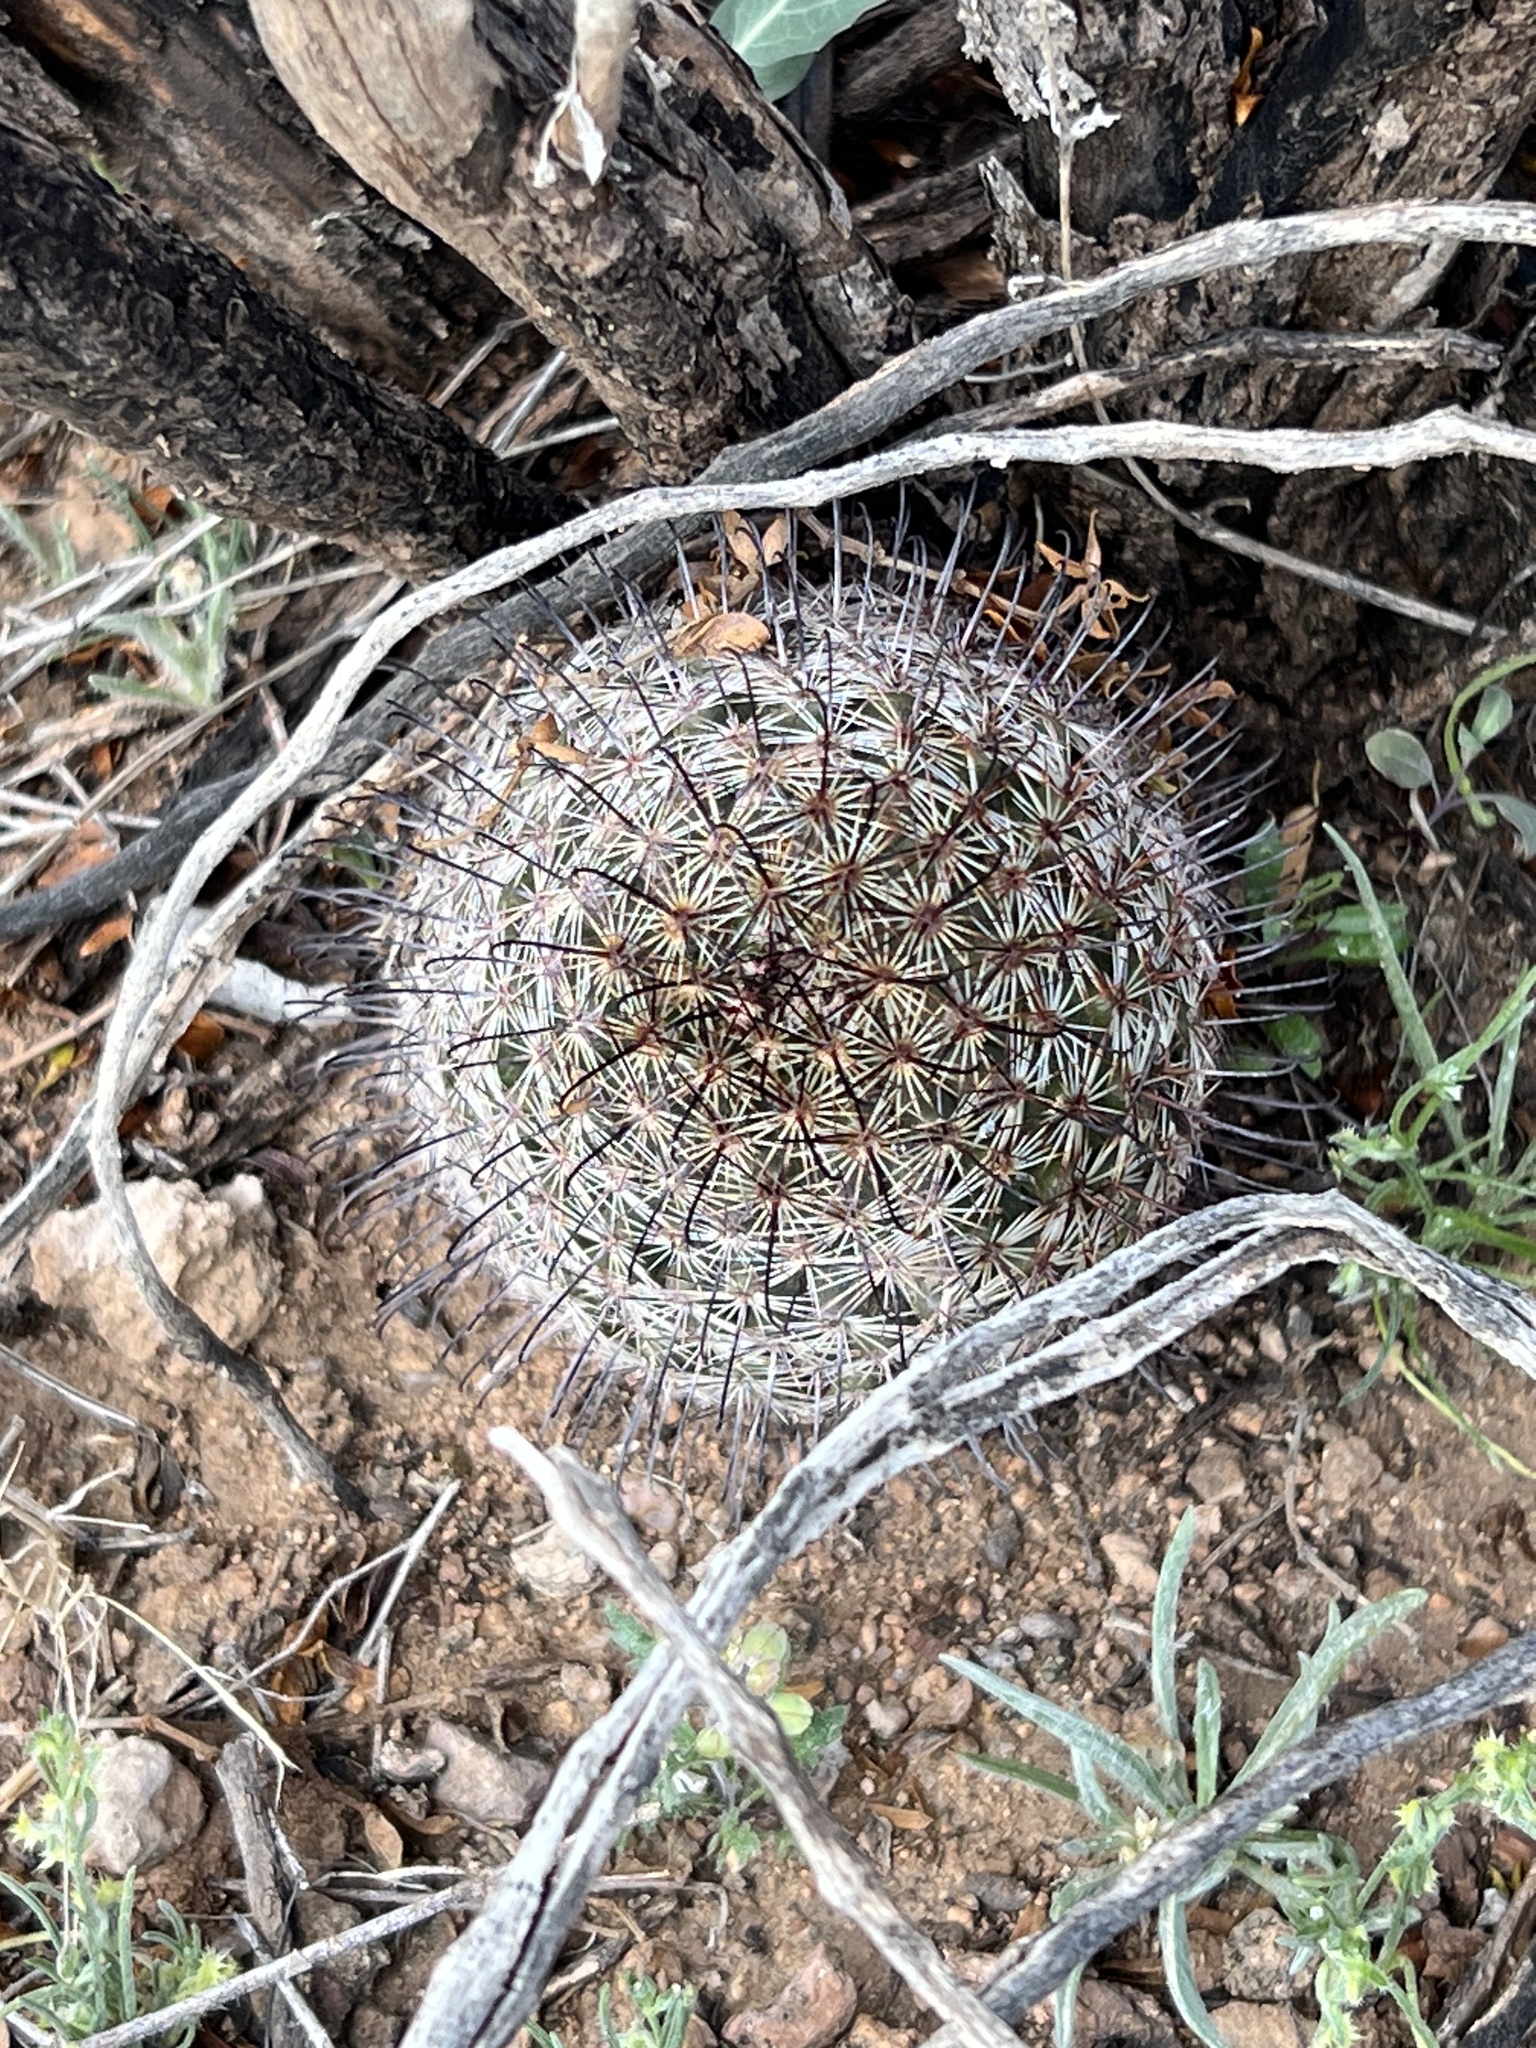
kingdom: Plantae
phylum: Tracheophyta
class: Magnoliopsida
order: Caryophyllales
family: Cactaceae
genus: Cochemiea
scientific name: Cochemiea grahamii
